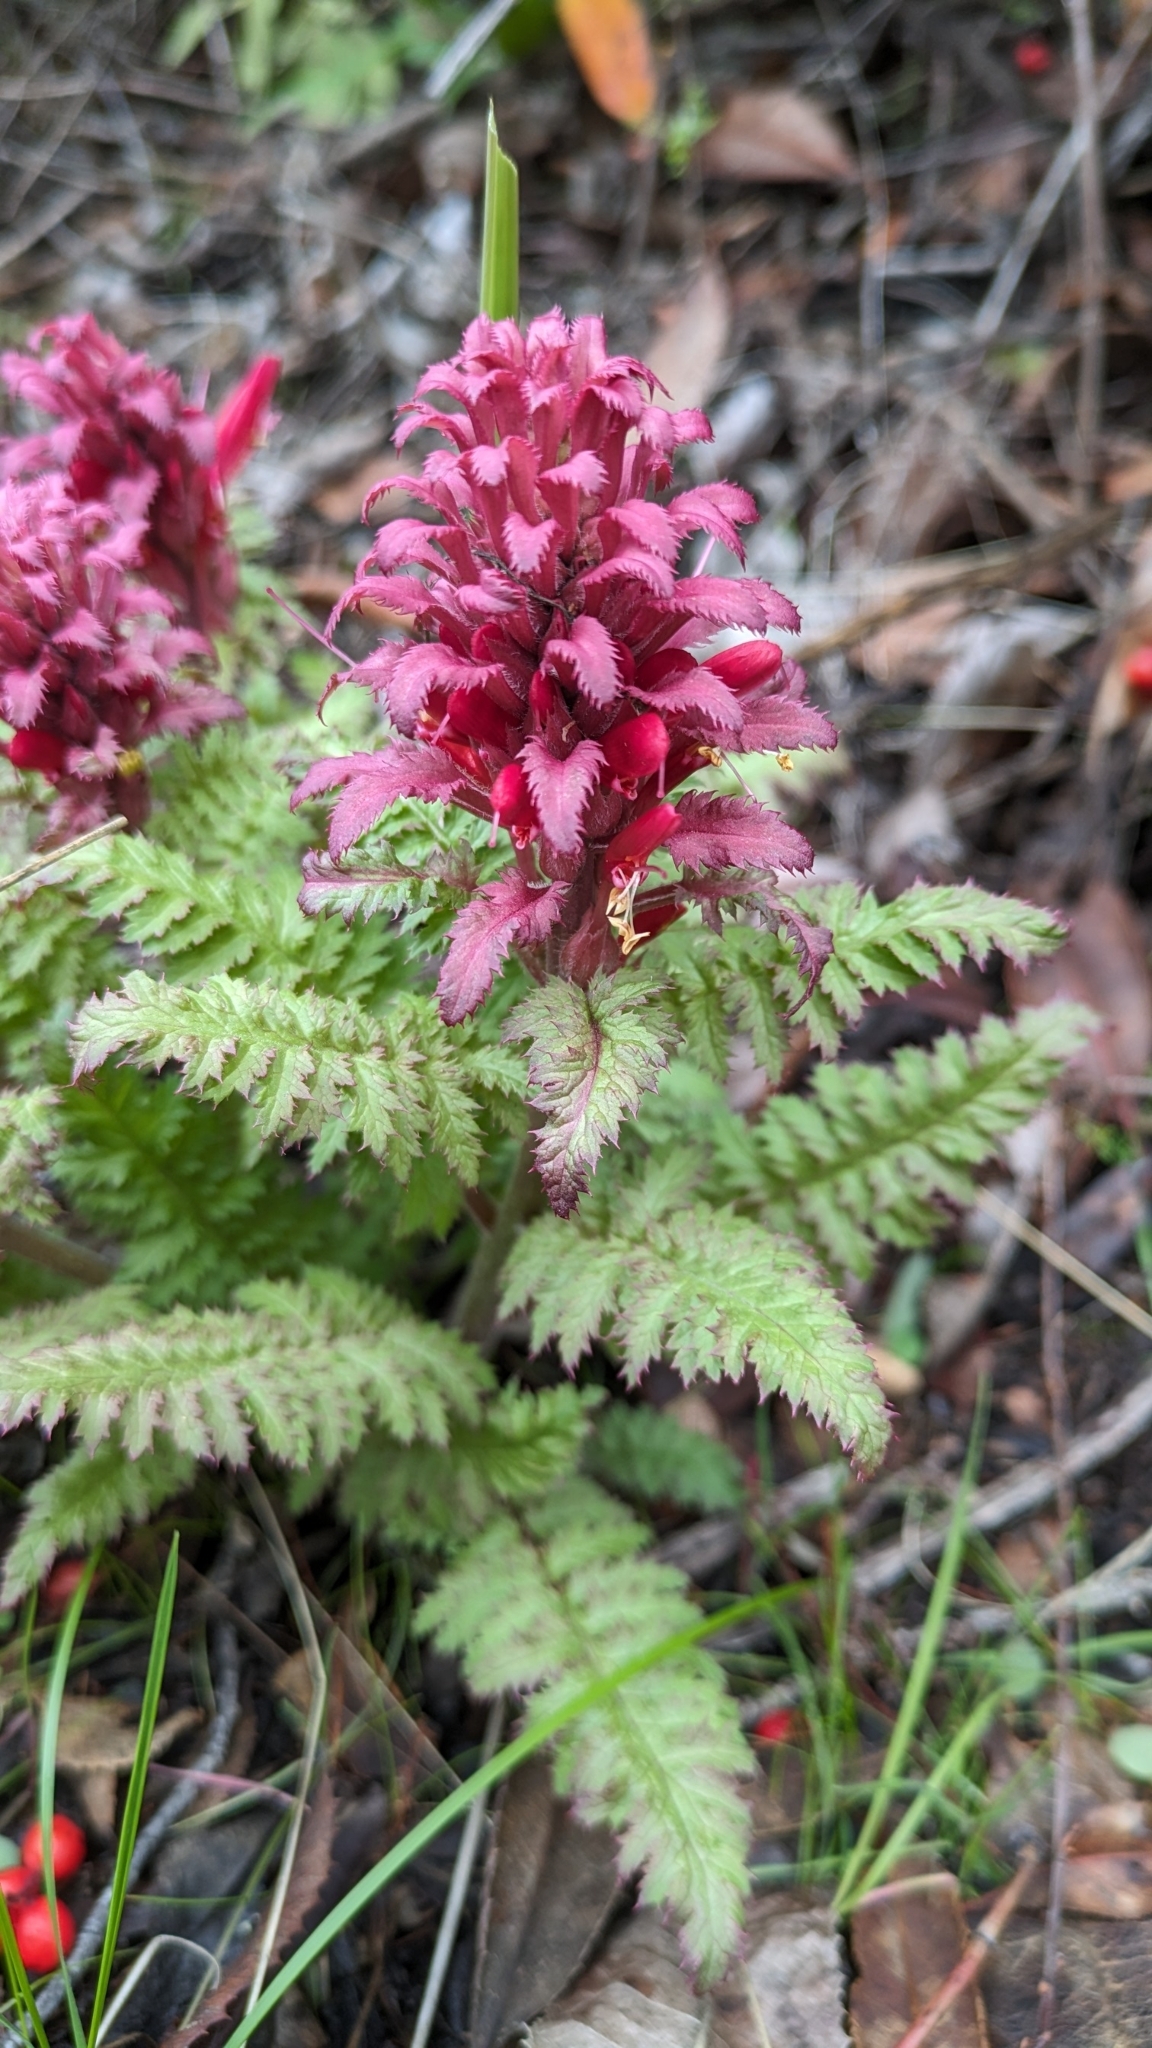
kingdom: Plantae
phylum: Tracheophyta
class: Magnoliopsida
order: Lamiales
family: Orobanchaceae
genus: Pedicularis
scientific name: Pedicularis densiflora
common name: Indian warrior
